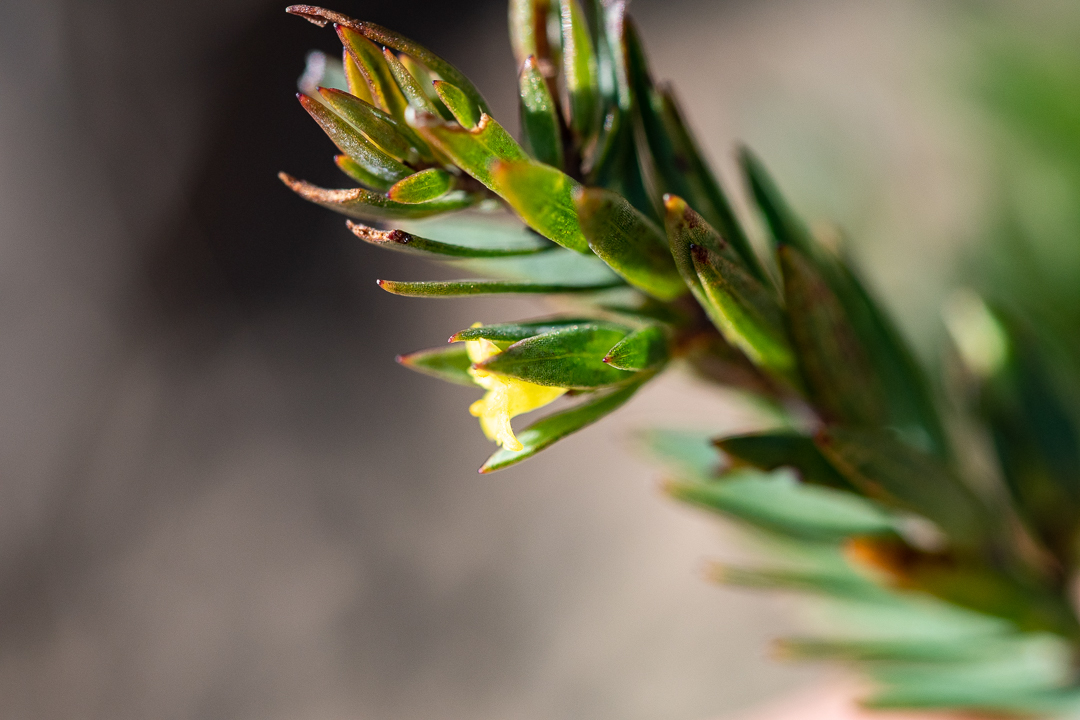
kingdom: Plantae
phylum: Tracheophyta
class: Magnoliopsida
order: Malvales
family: Thymelaeaceae
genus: Gnidia
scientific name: Gnidia juniperifolia
